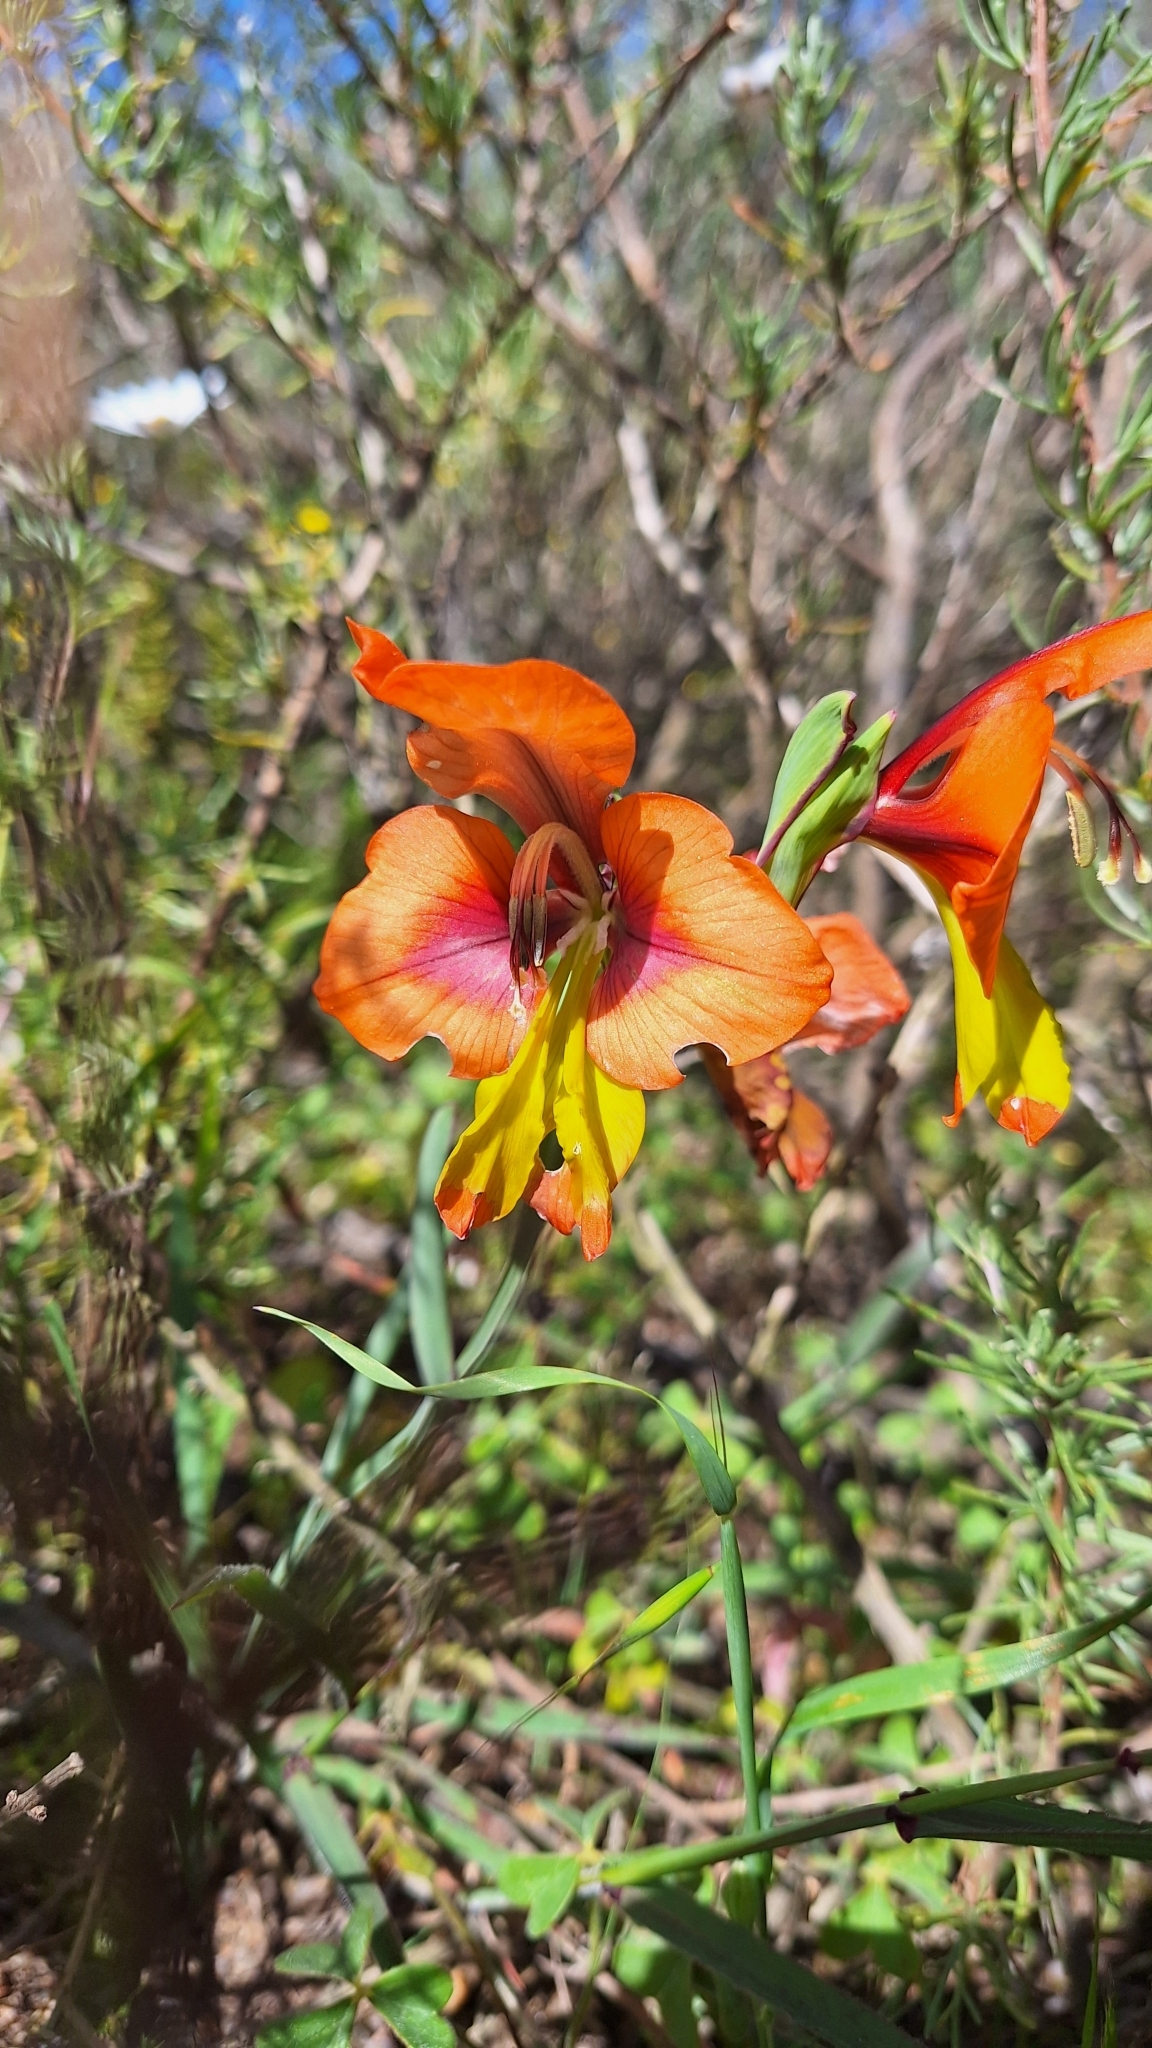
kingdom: Plantae
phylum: Tracheophyta
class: Liliopsida
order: Asparagales
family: Iridaceae
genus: Gladiolus
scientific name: Gladiolus alatus
